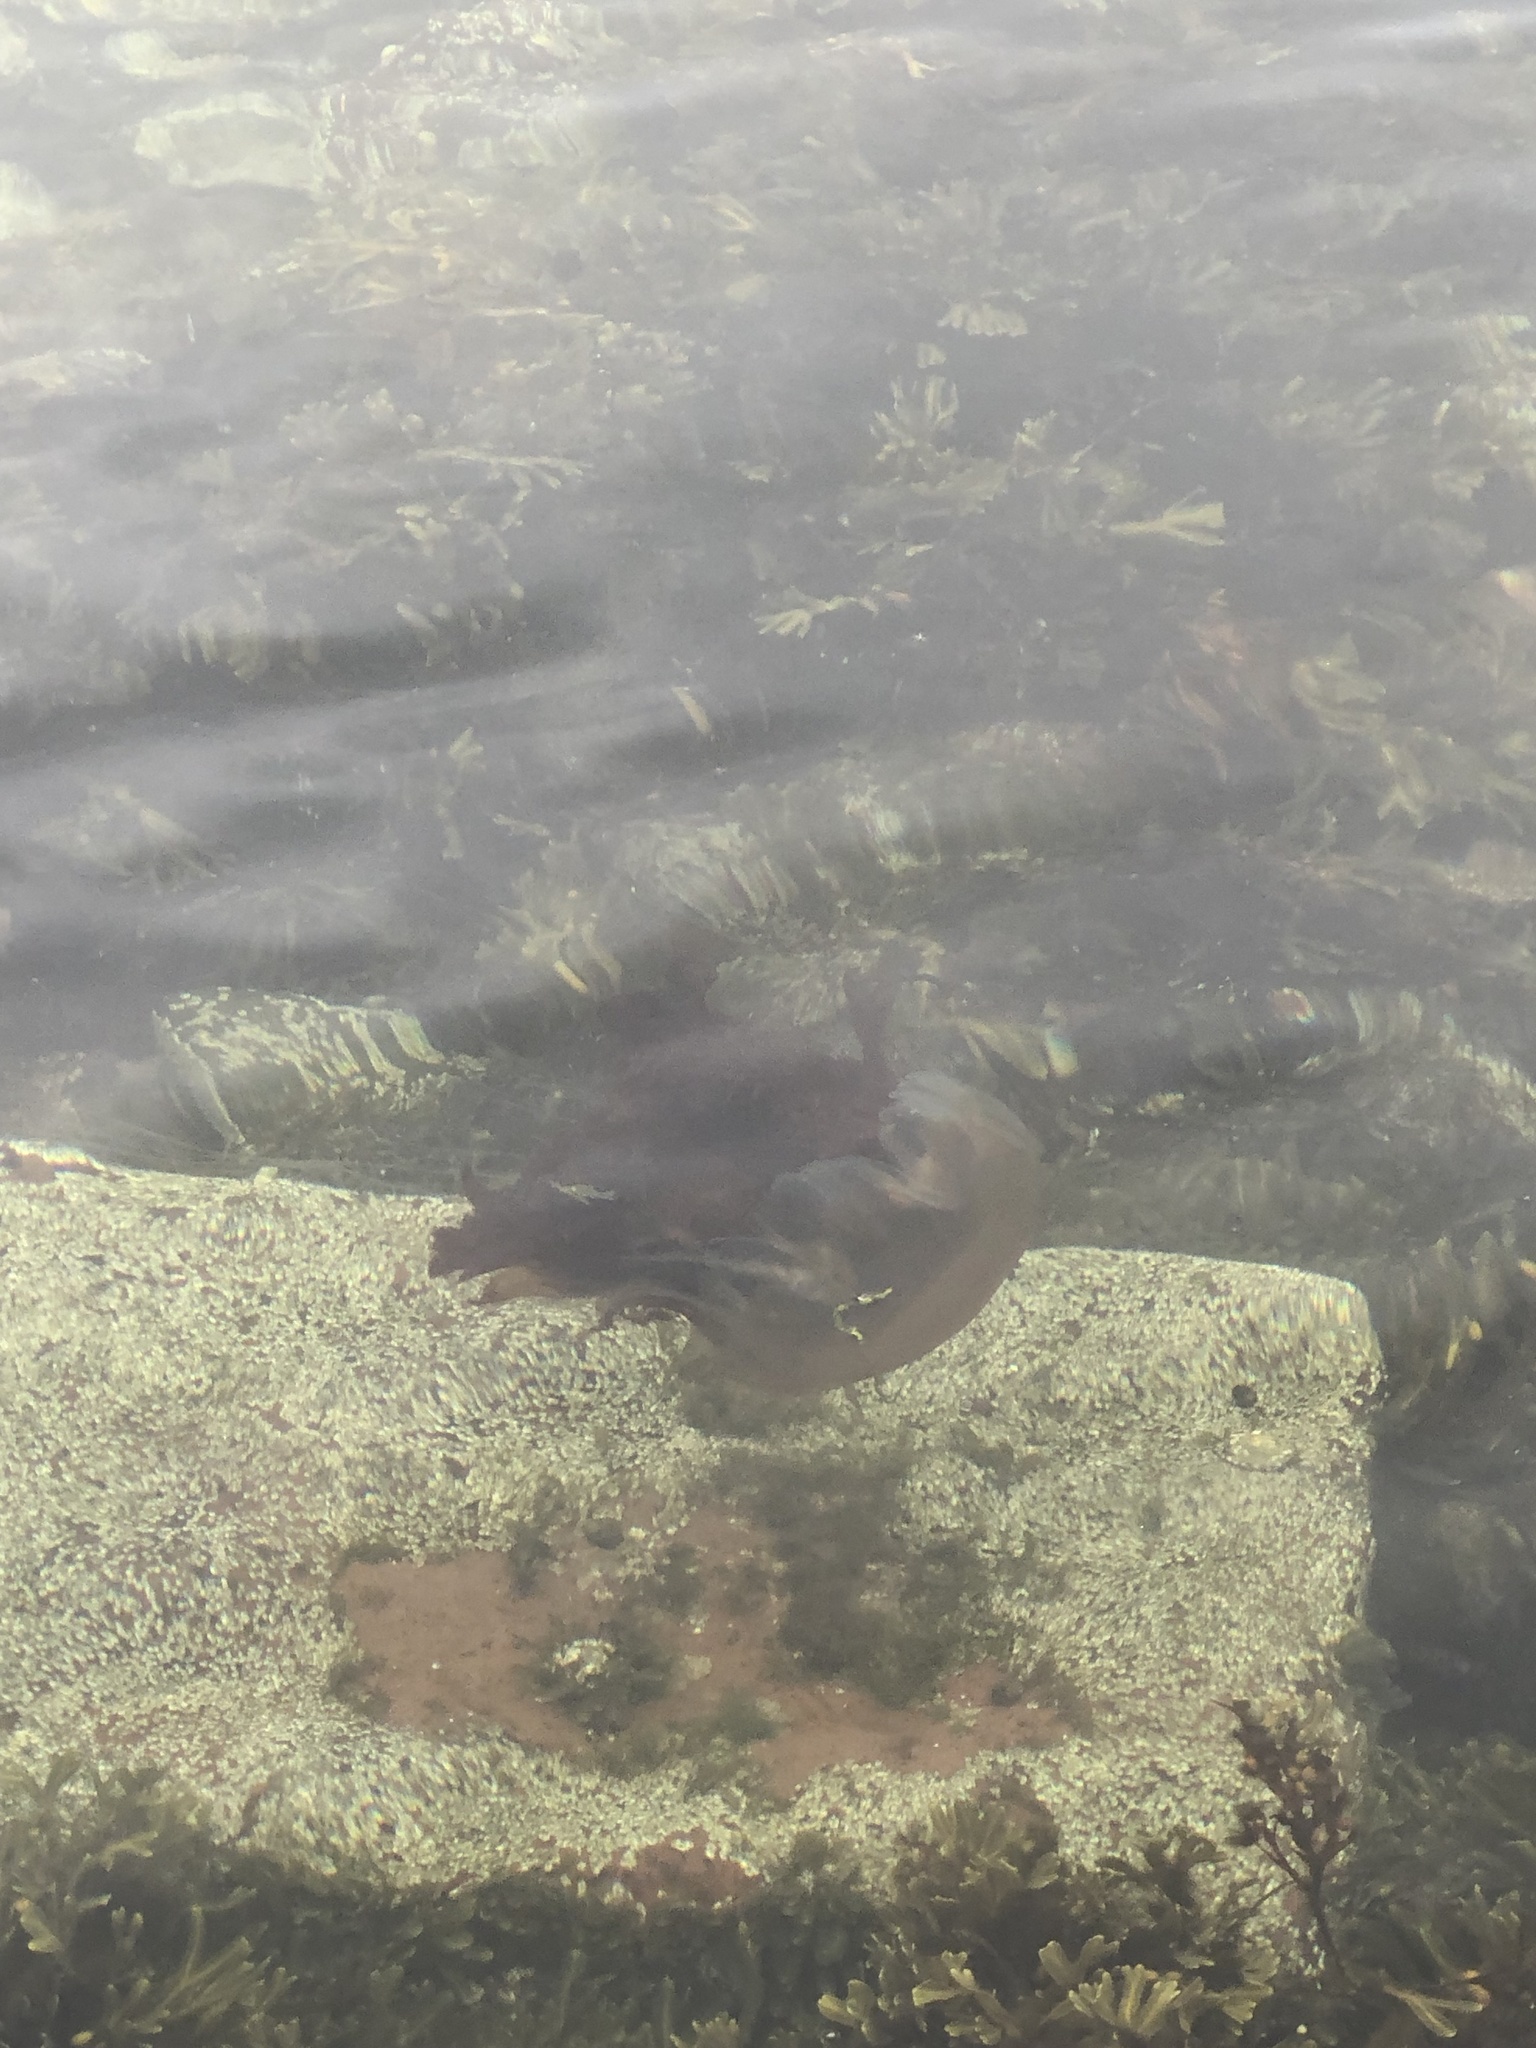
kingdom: Animalia
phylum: Cnidaria
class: Scyphozoa
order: Semaeostomeae
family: Cyaneidae
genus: Cyanea
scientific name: Cyanea capillata
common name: Lion's mane jellyfish
